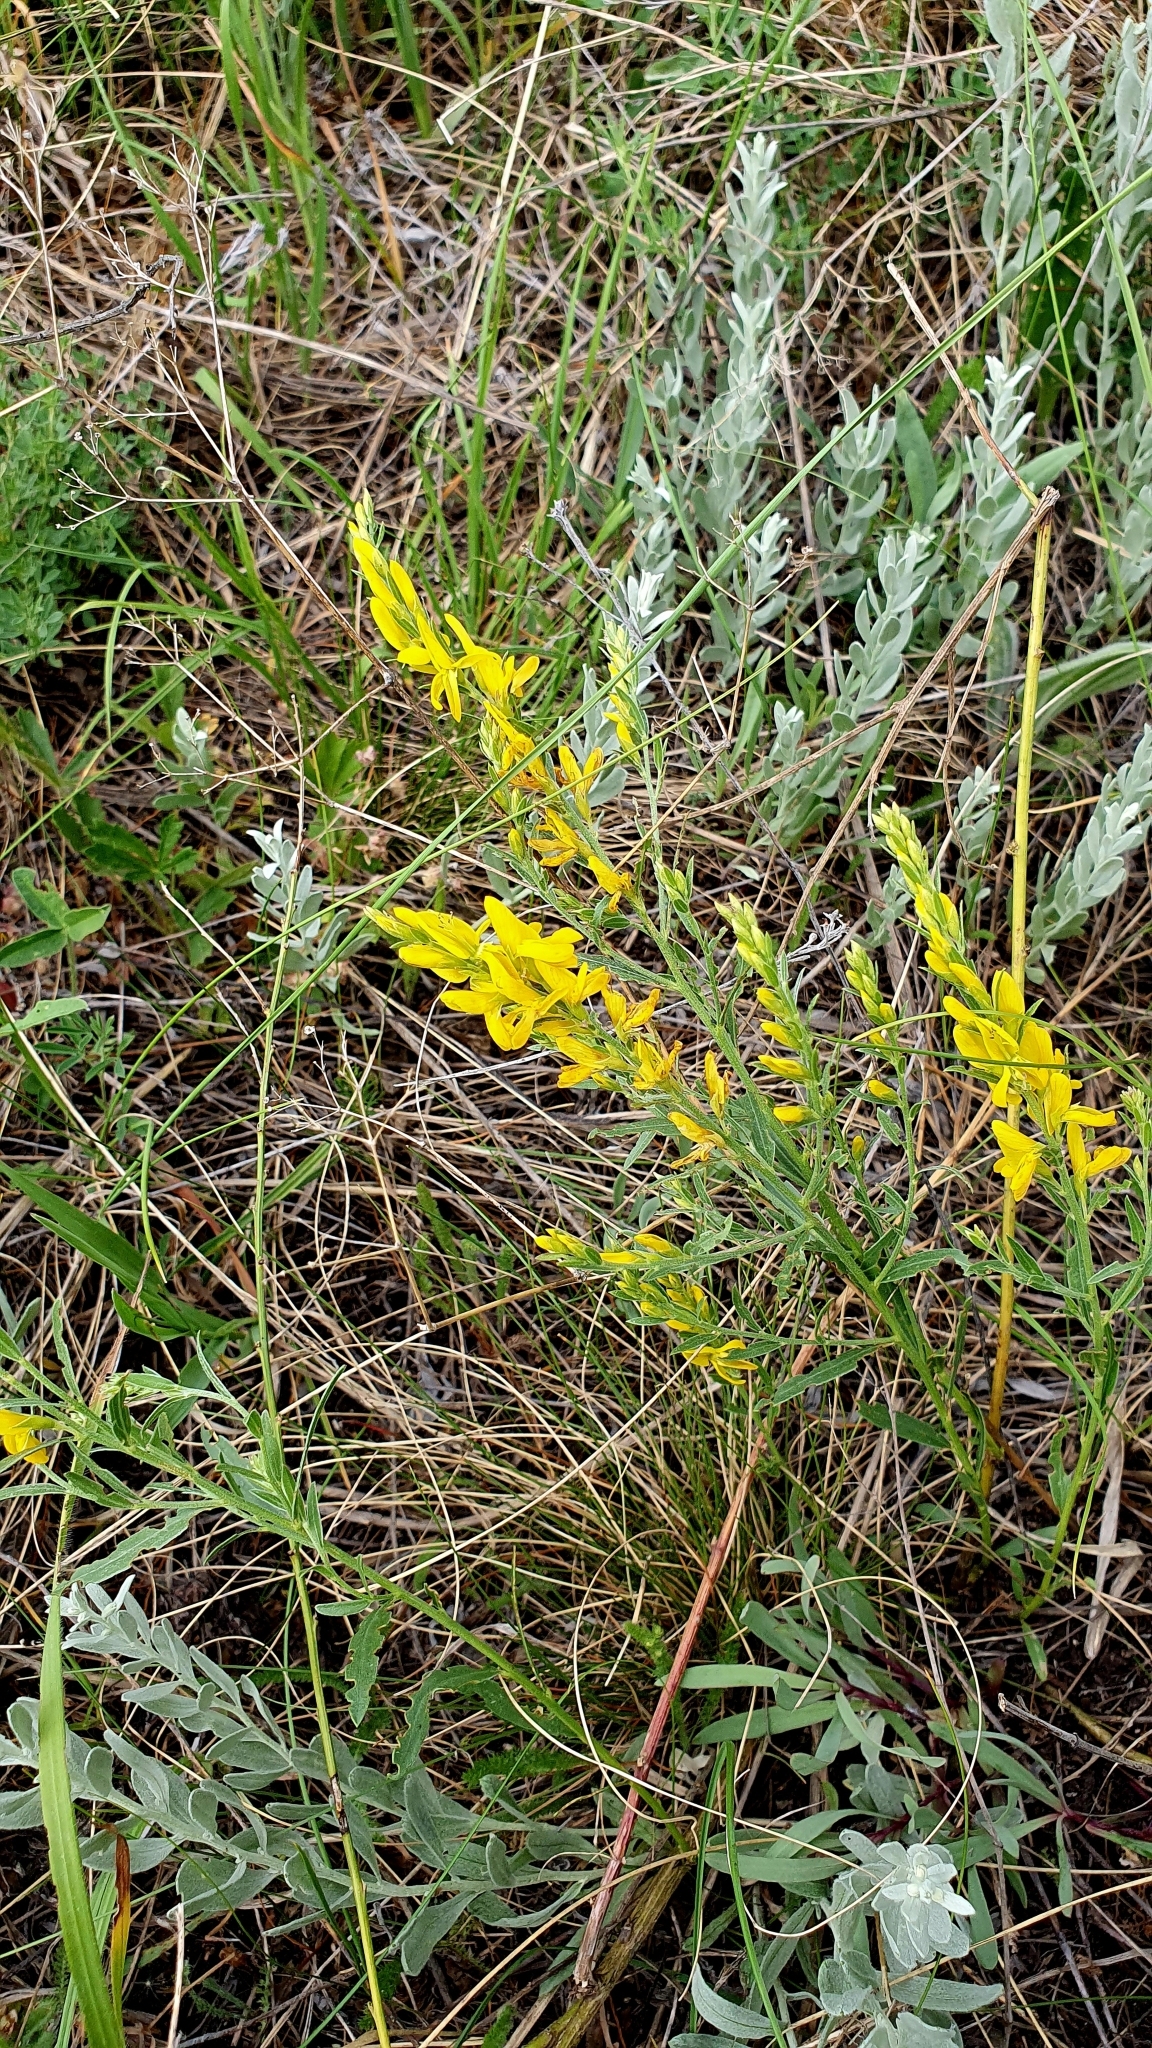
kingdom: Plantae
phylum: Tracheophyta
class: Magnoliopsida
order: Fabales
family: Fabaceae
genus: Genista
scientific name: Genista tinctoria
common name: Dyer's greenweed
